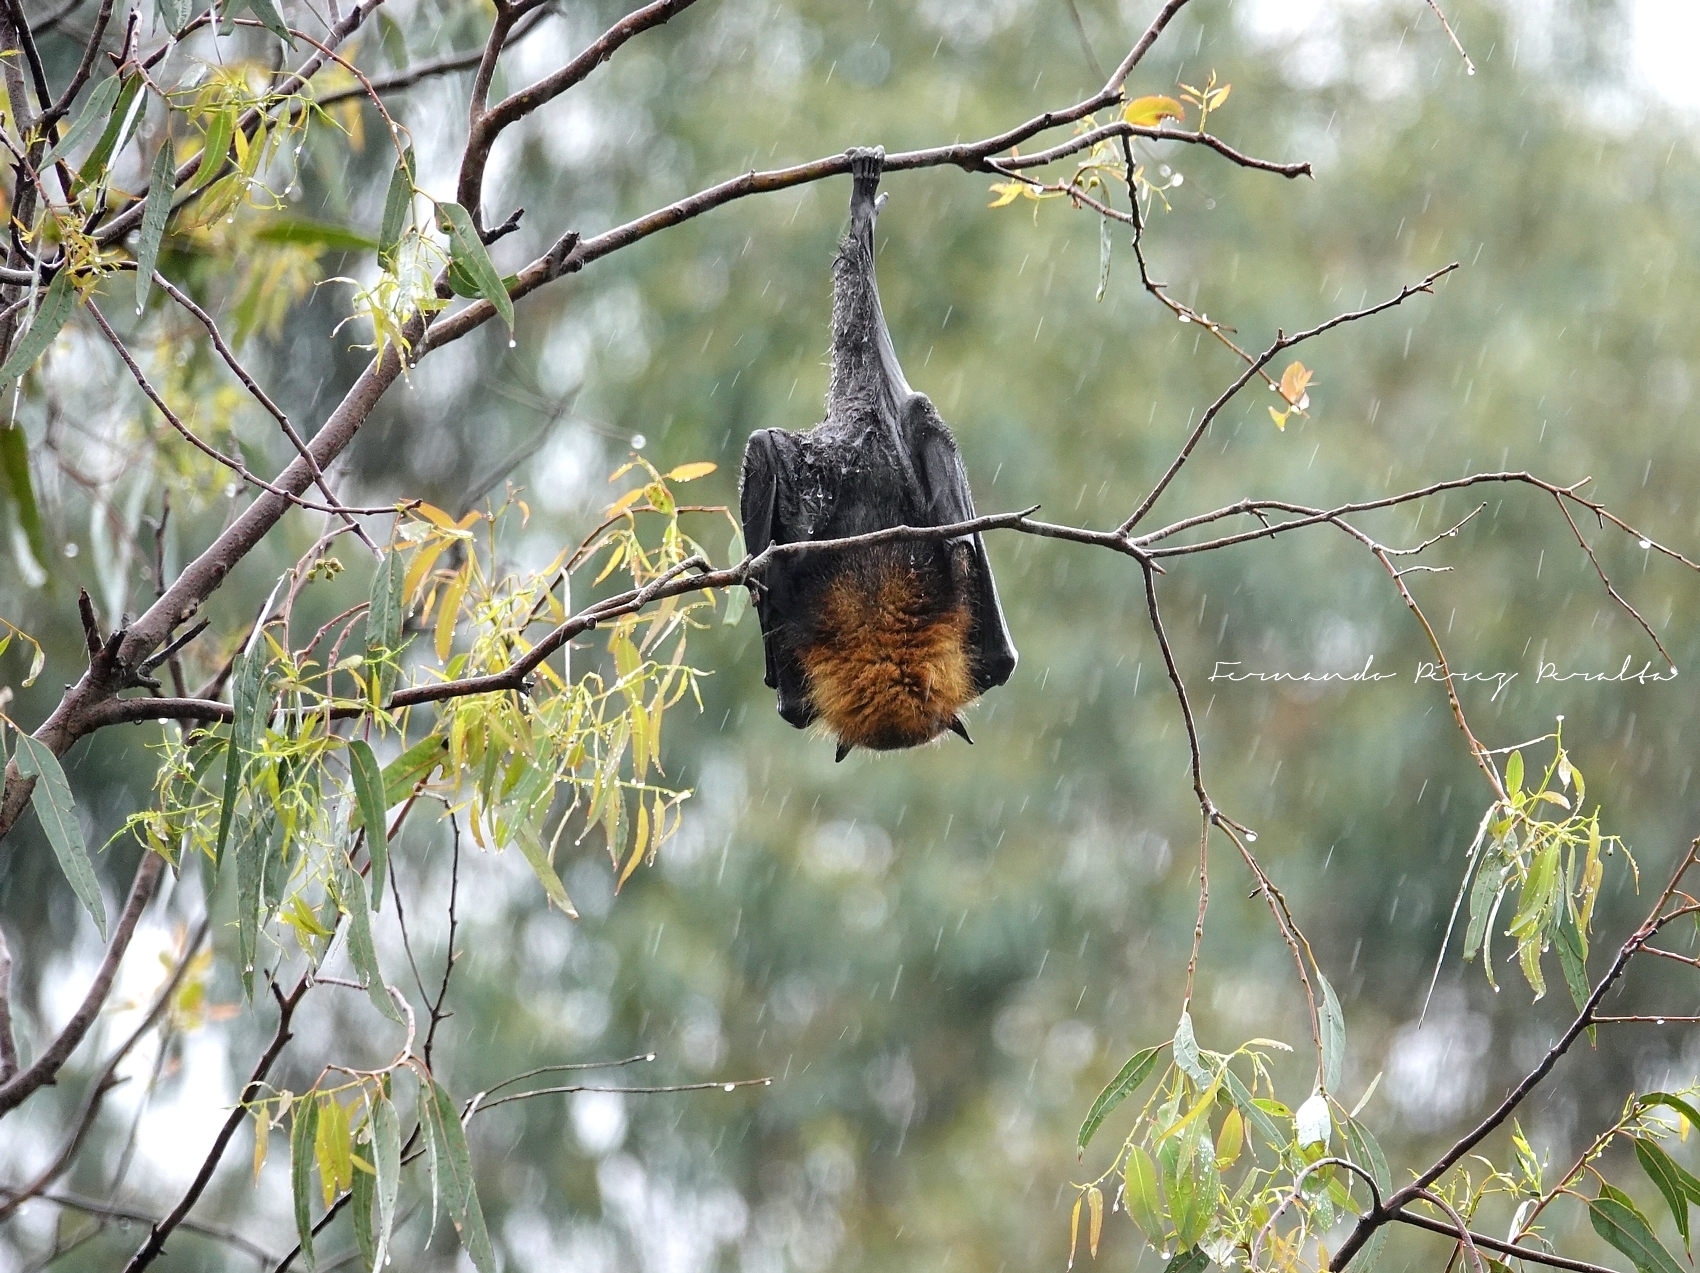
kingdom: Animalia
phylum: Chordata
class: Mammalia
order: Chiroptera
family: Pteropodidae
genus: Pteropus
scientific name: Pteropus poliocephalus
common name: Gray-headed flying fox
